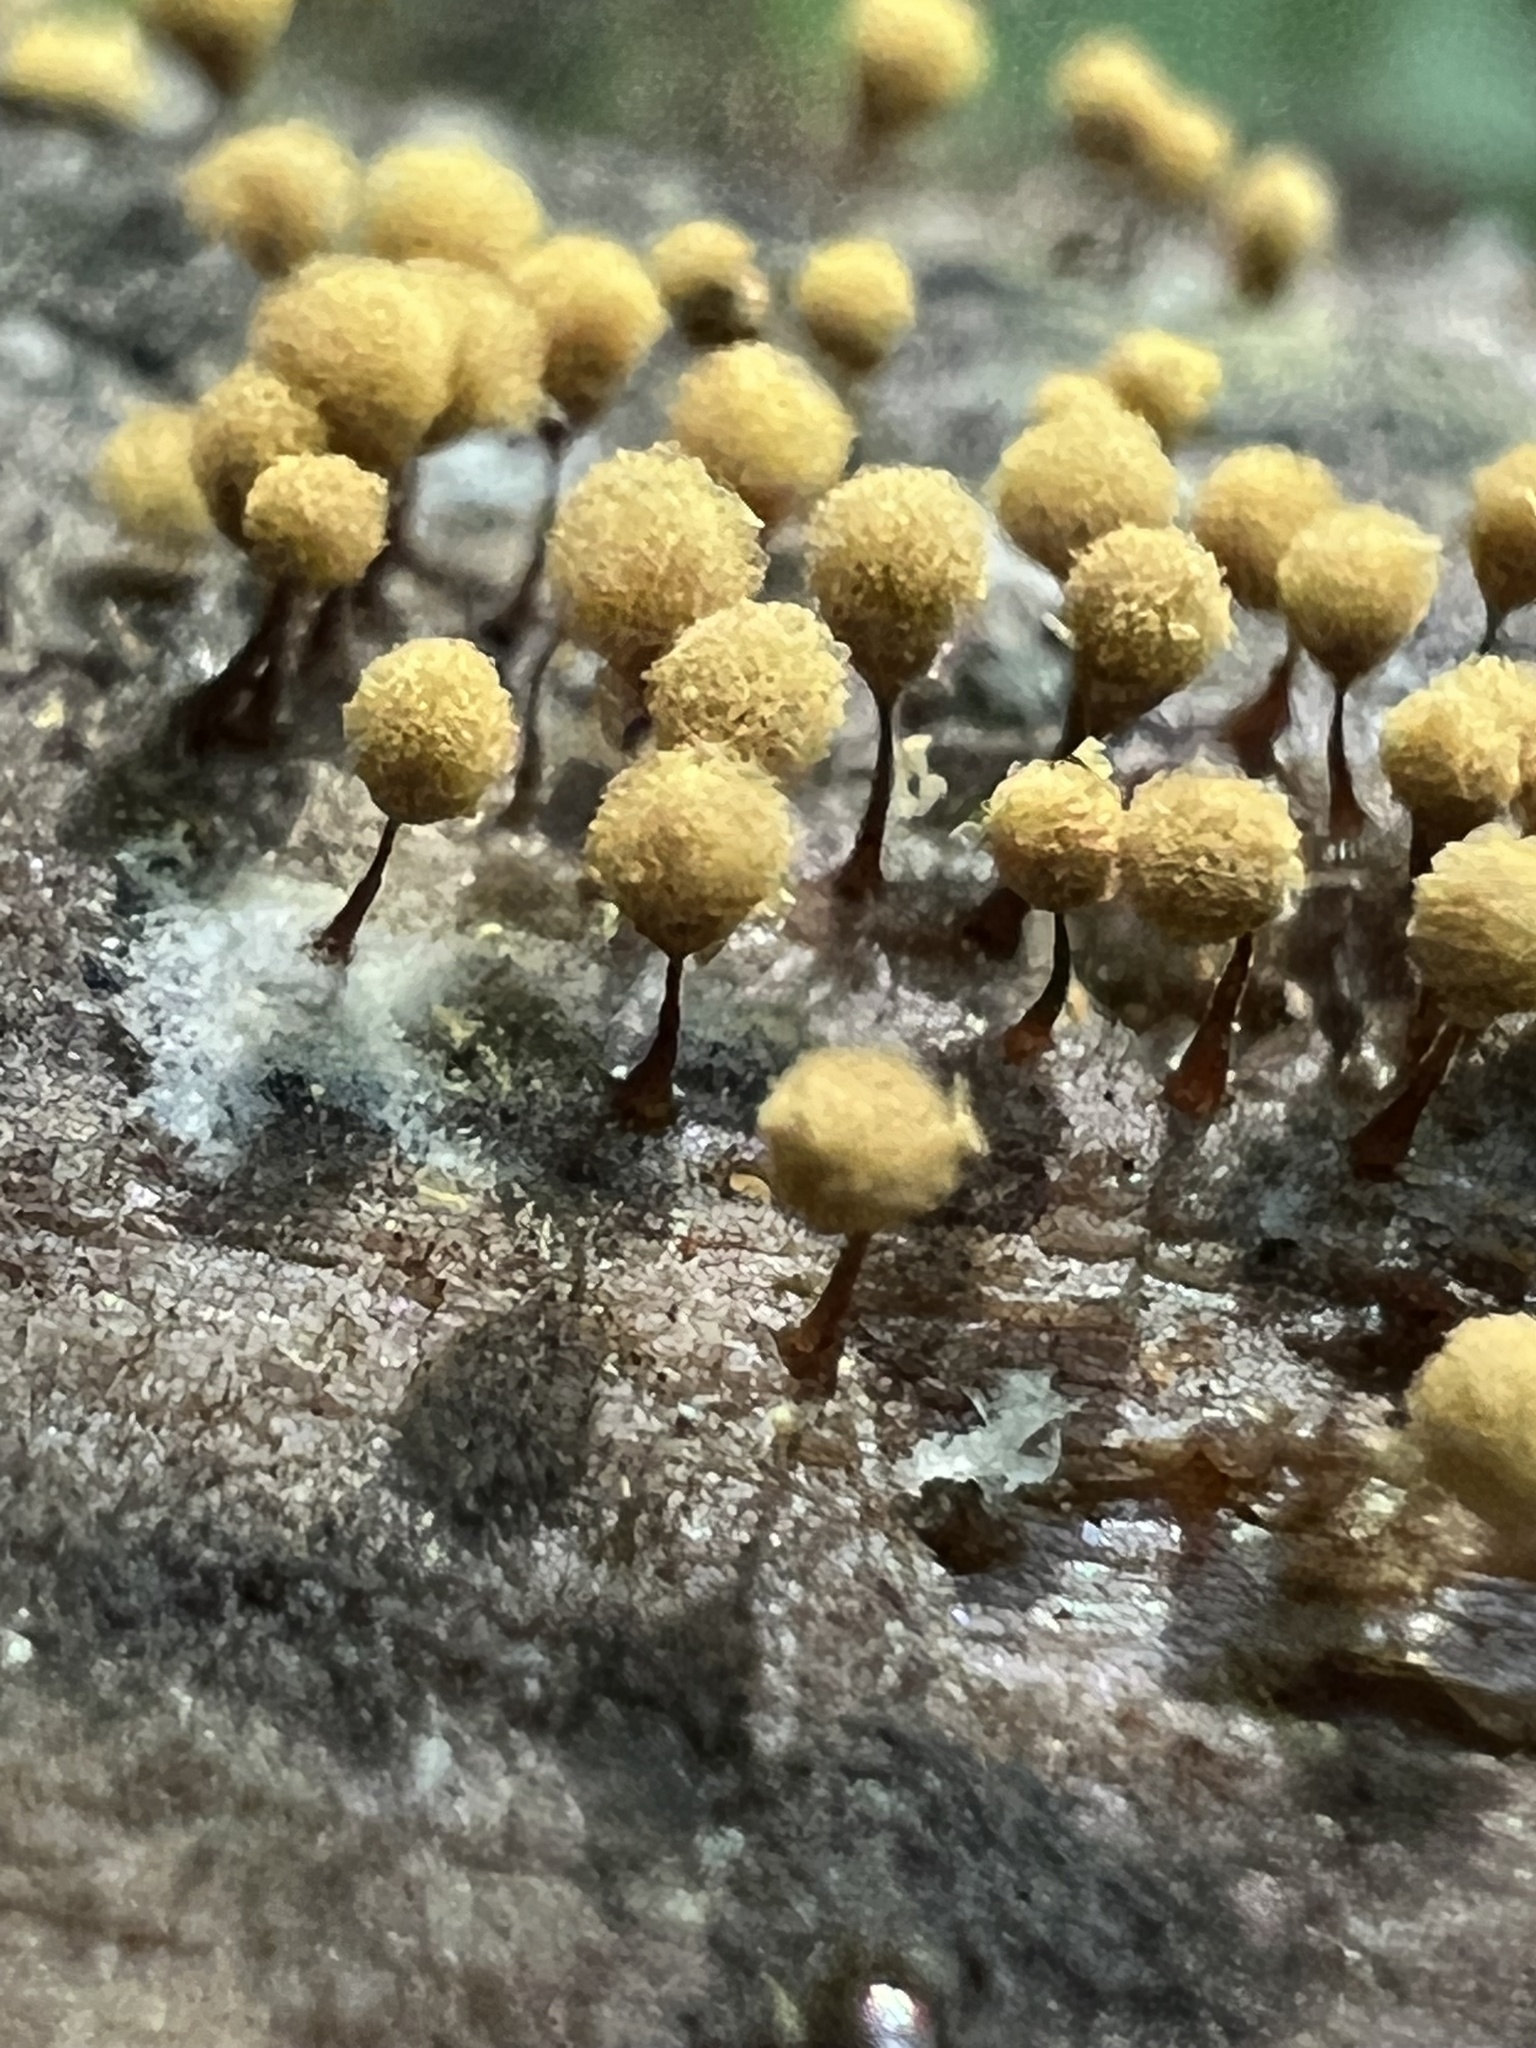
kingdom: Protozoa
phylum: Mycetozoa
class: Myxomycetes
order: Trichiales
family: Arcyriaceae
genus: Hemitrichia
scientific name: Hemitrichia calyculata
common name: Push pin slime mold
